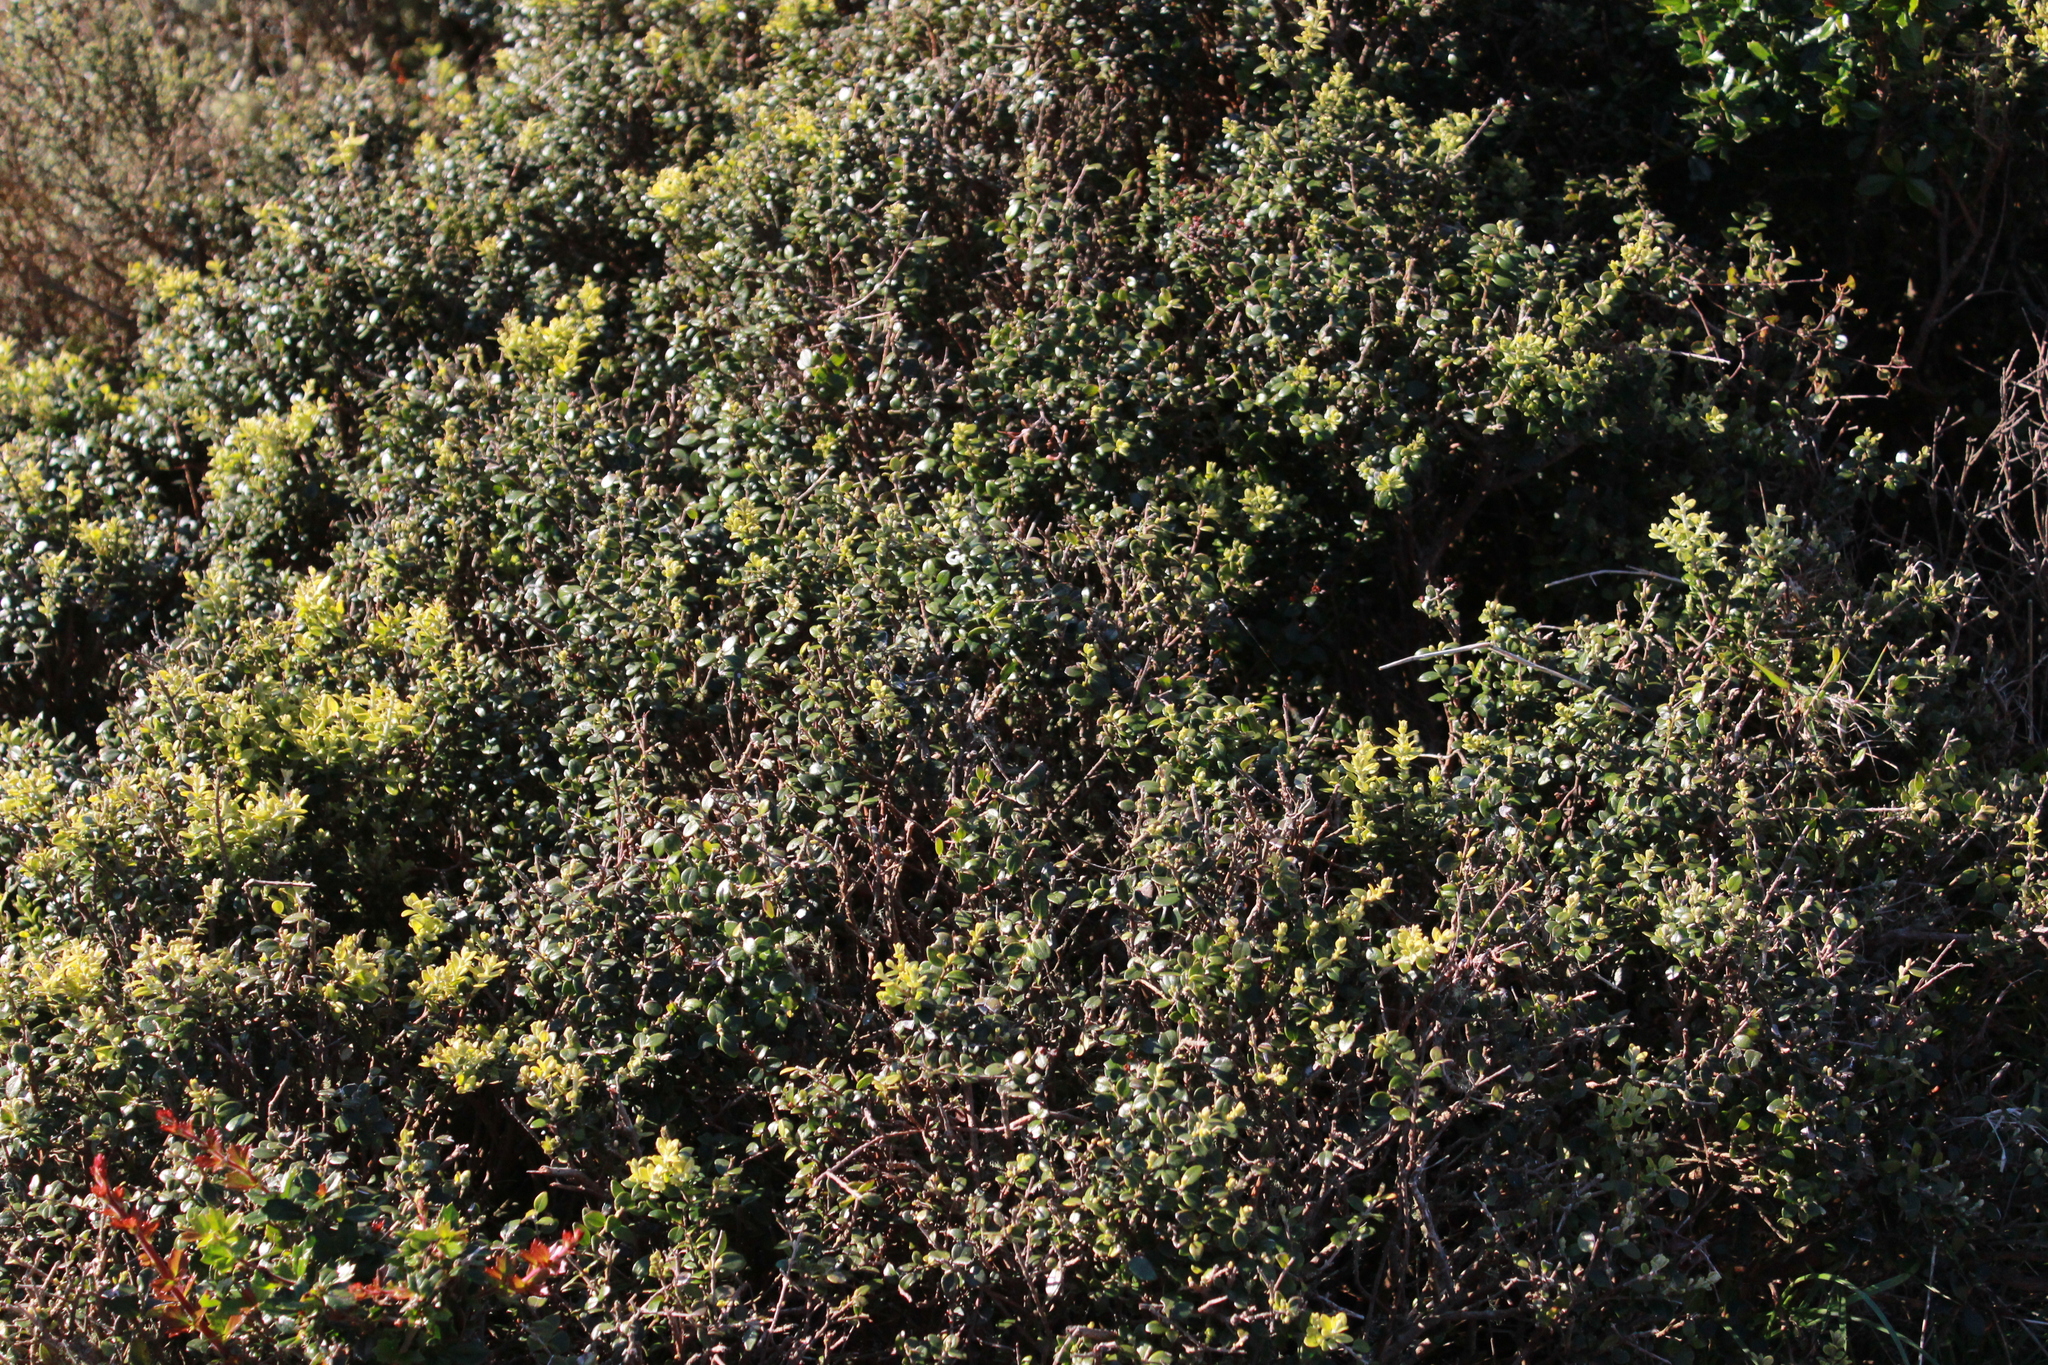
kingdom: Plantae
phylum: Tracheophyta
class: Magnoliopsida
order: Myrtales
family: Myrtaceae
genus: Metrosideros
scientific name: Metrosideros perforata
